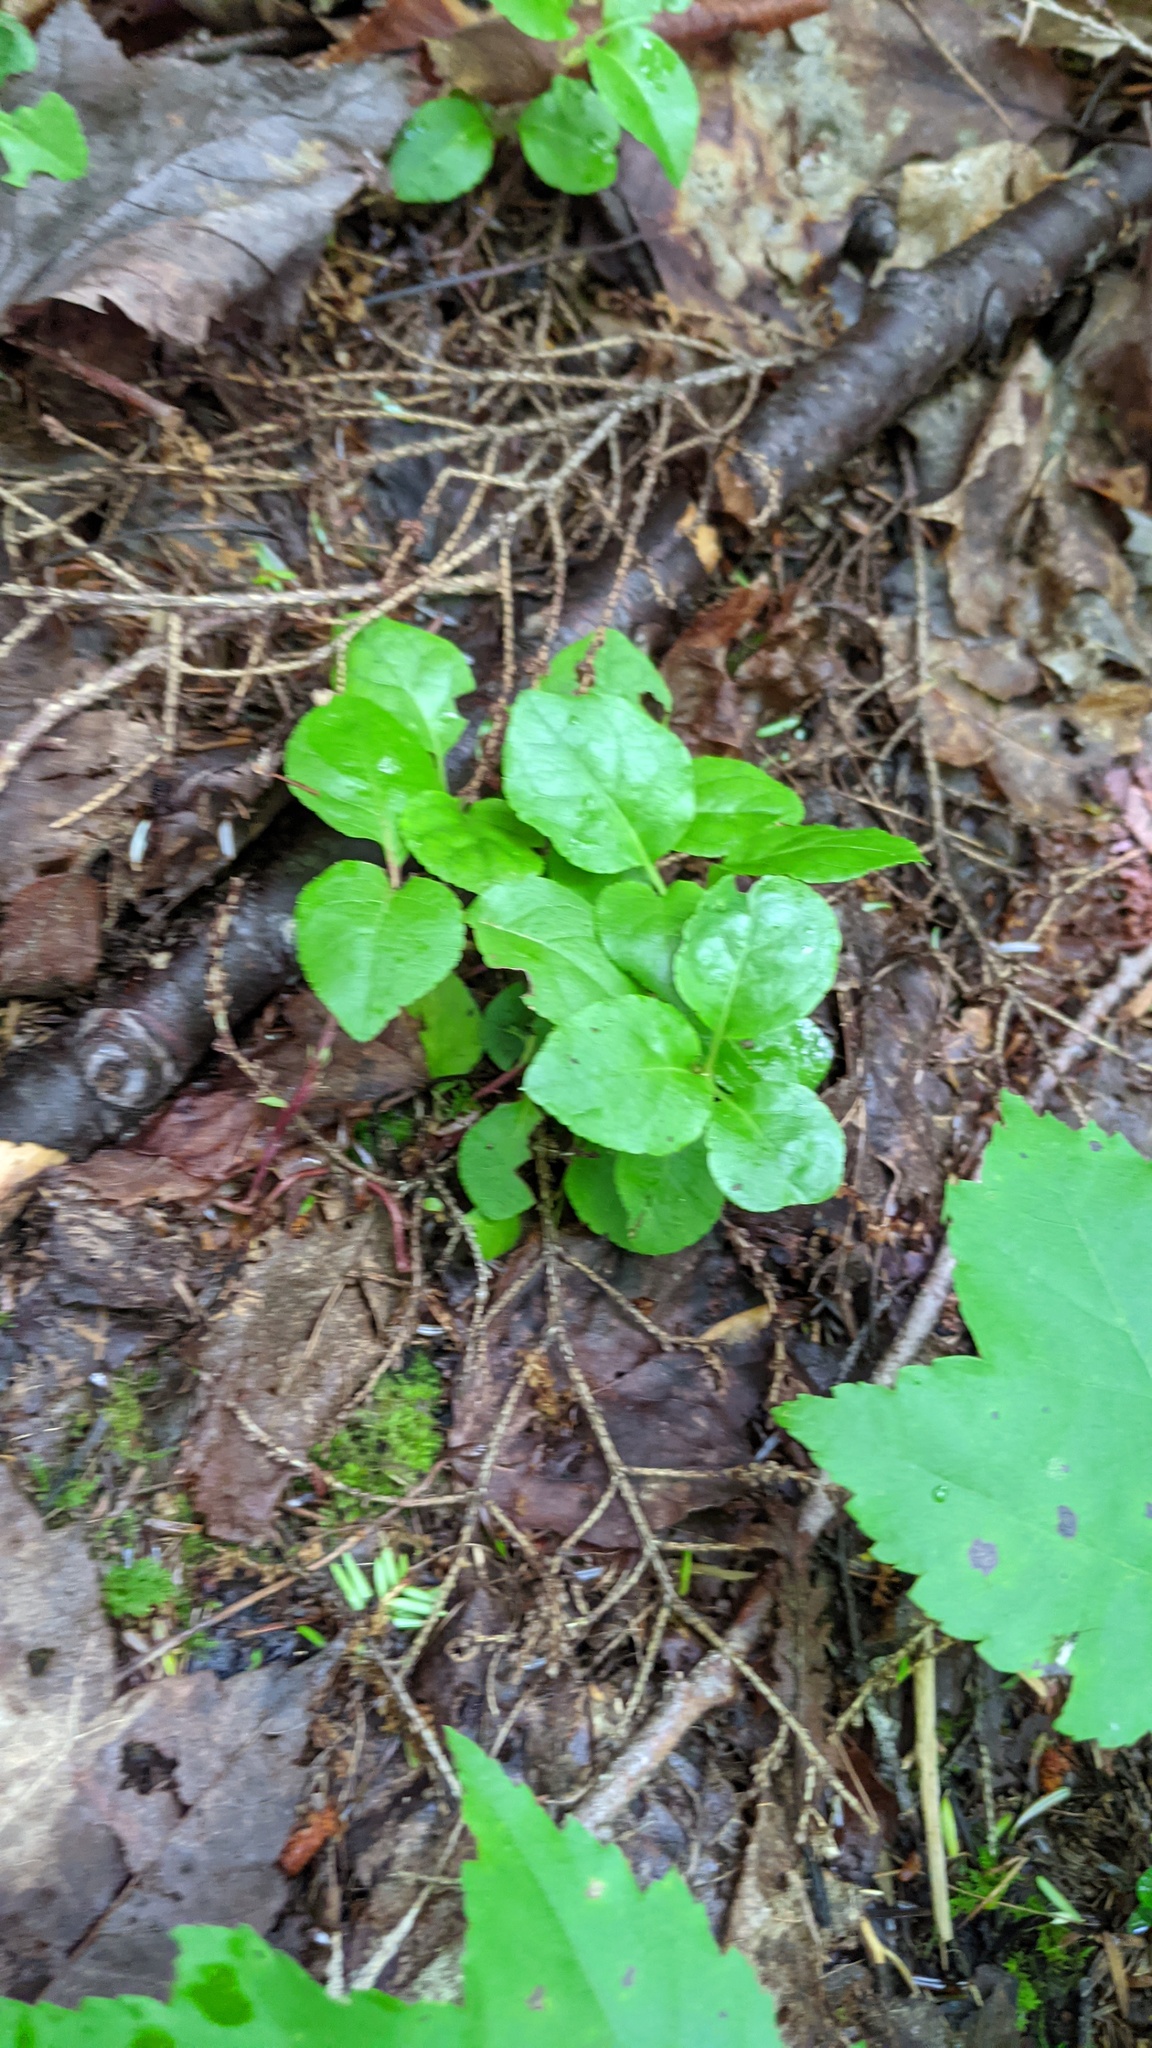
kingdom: Plantae
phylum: Tracheophyta
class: Magnoliopsida
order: Ericales
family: Ericaceae
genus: Orthilia
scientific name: Orthilia secunda
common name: One-sided orthilia
